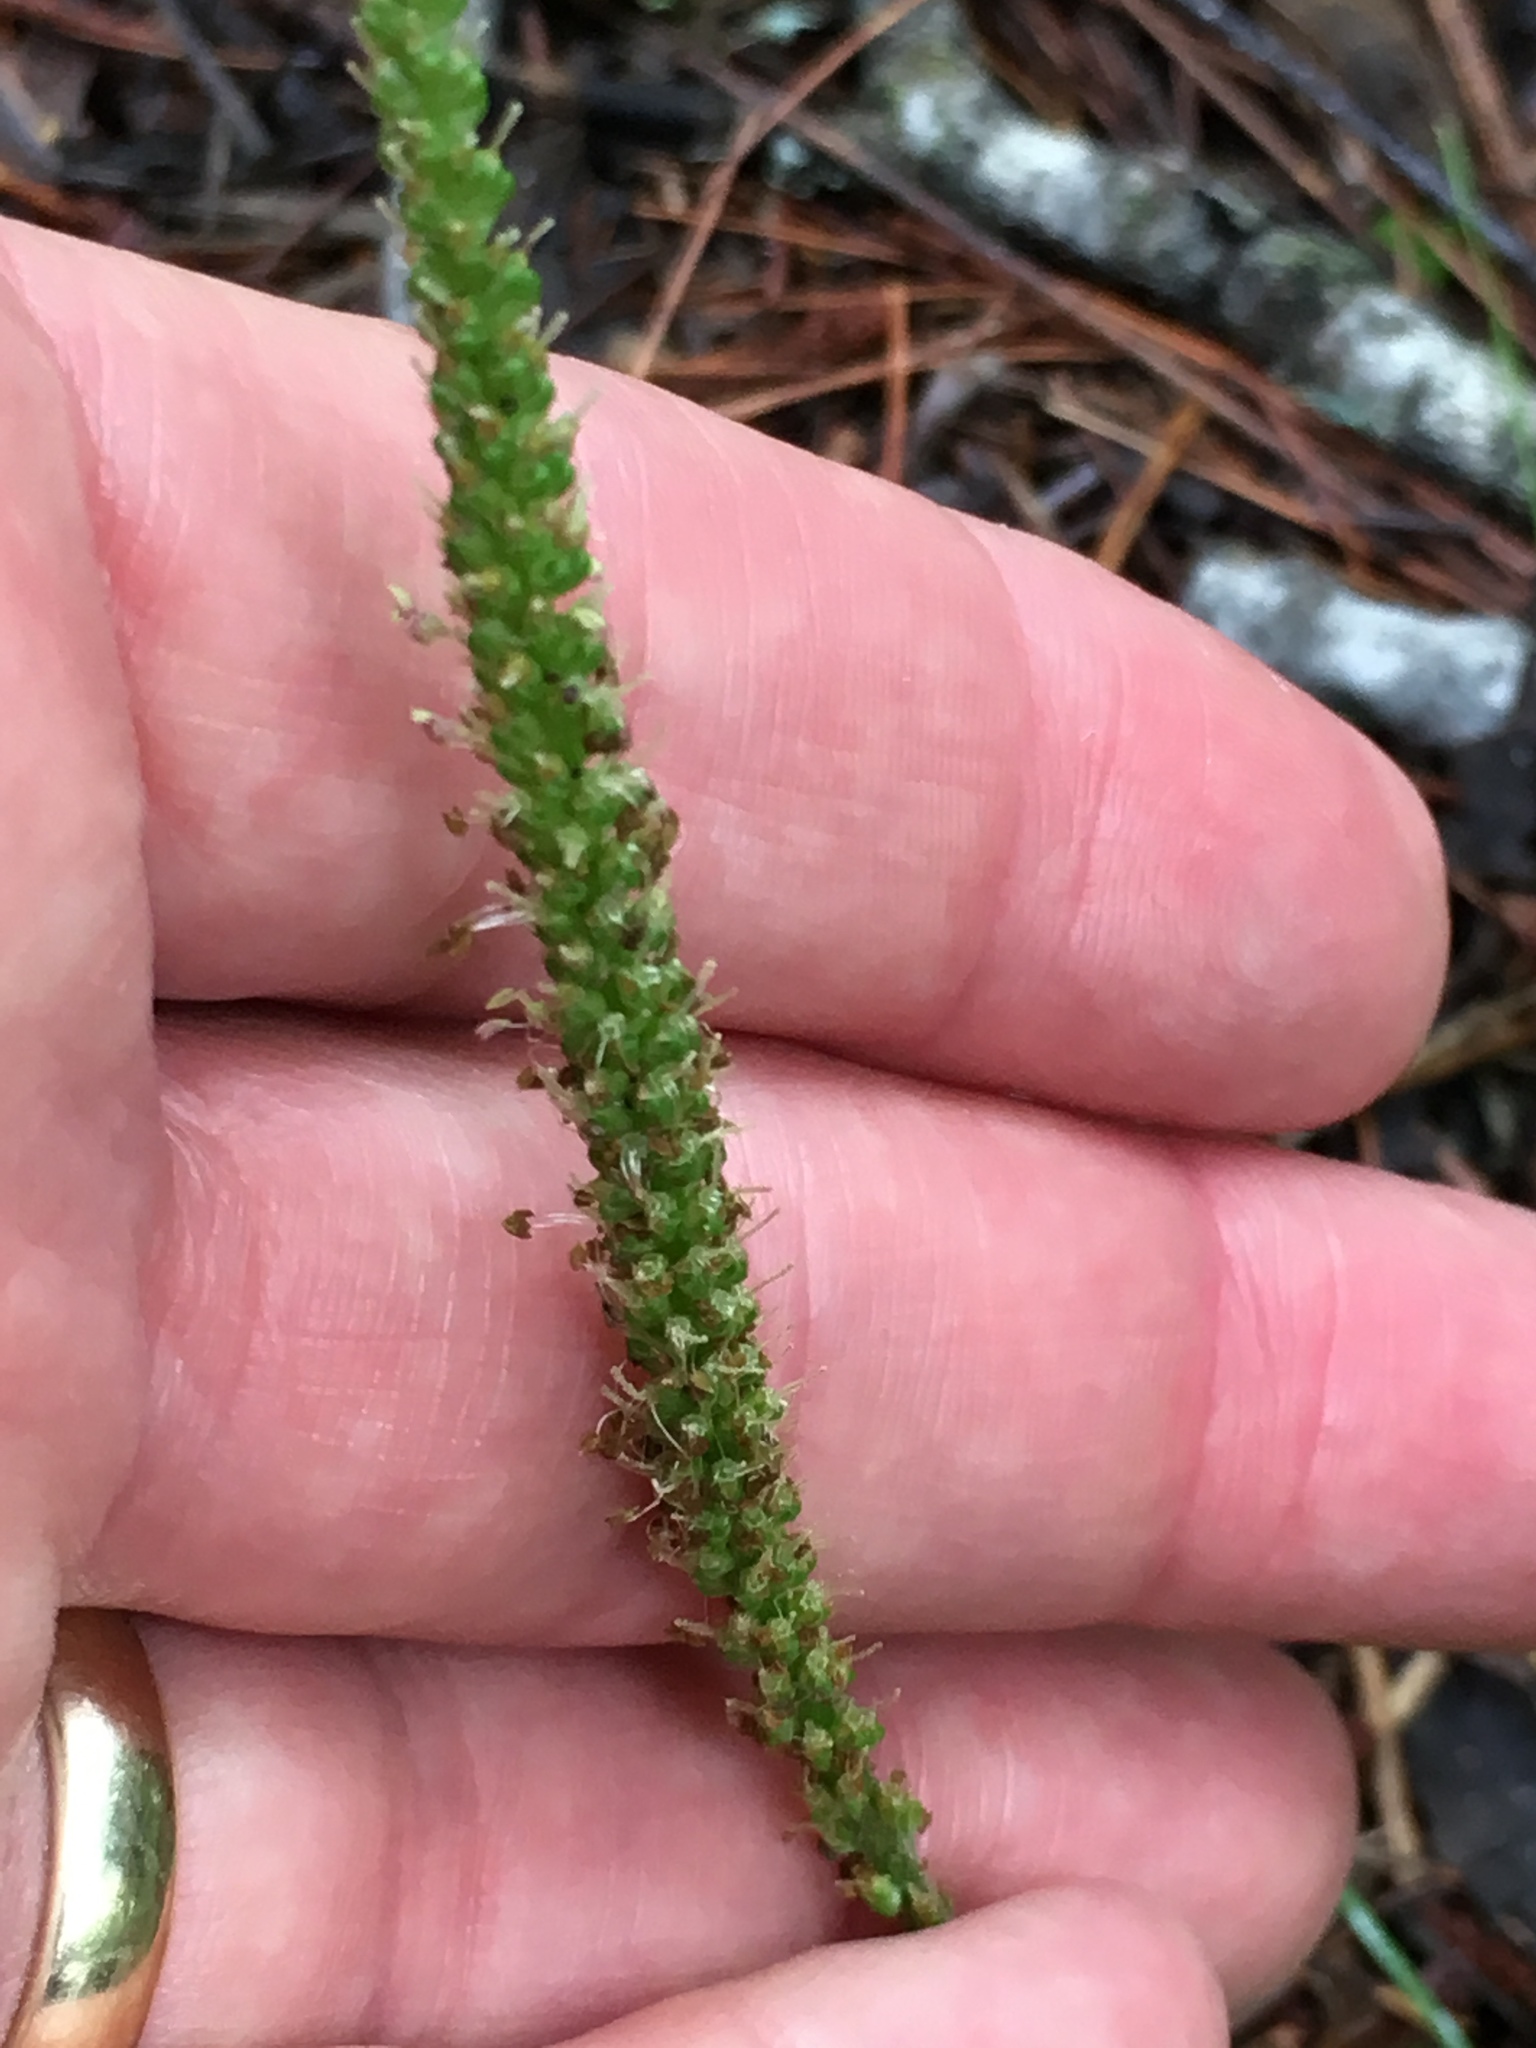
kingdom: Plantae
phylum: Tracheophyta
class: Magnoliopsida
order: Lamiales
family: Plantaginaceae
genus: Plantago
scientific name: Plantago rugelii
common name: American plantain
